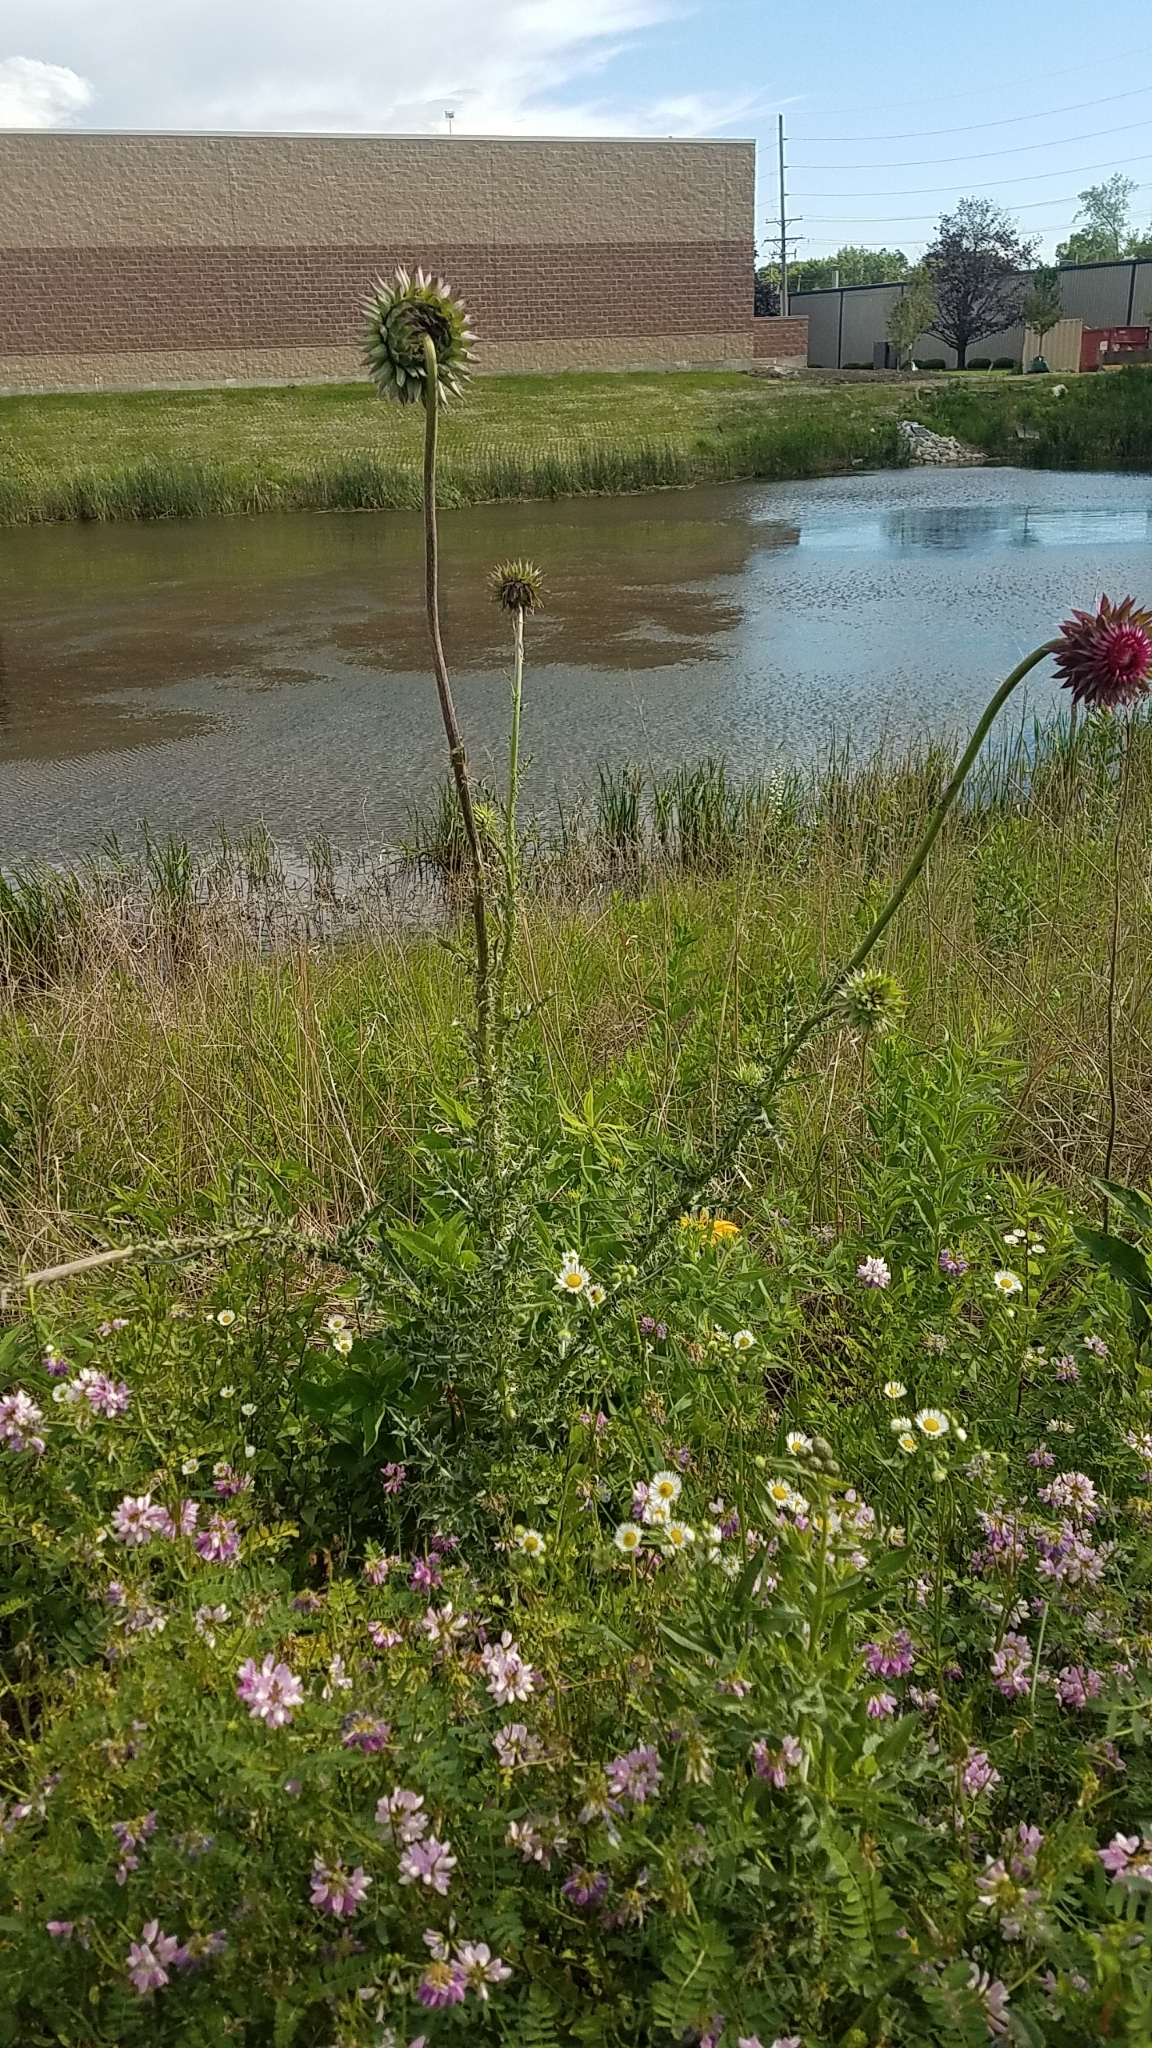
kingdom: Plantae
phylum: Tracheophyta
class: Magnoliopsida
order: Asterales
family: Asteraceae
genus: Carduus
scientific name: Carduus nutans
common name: Musk thistle
